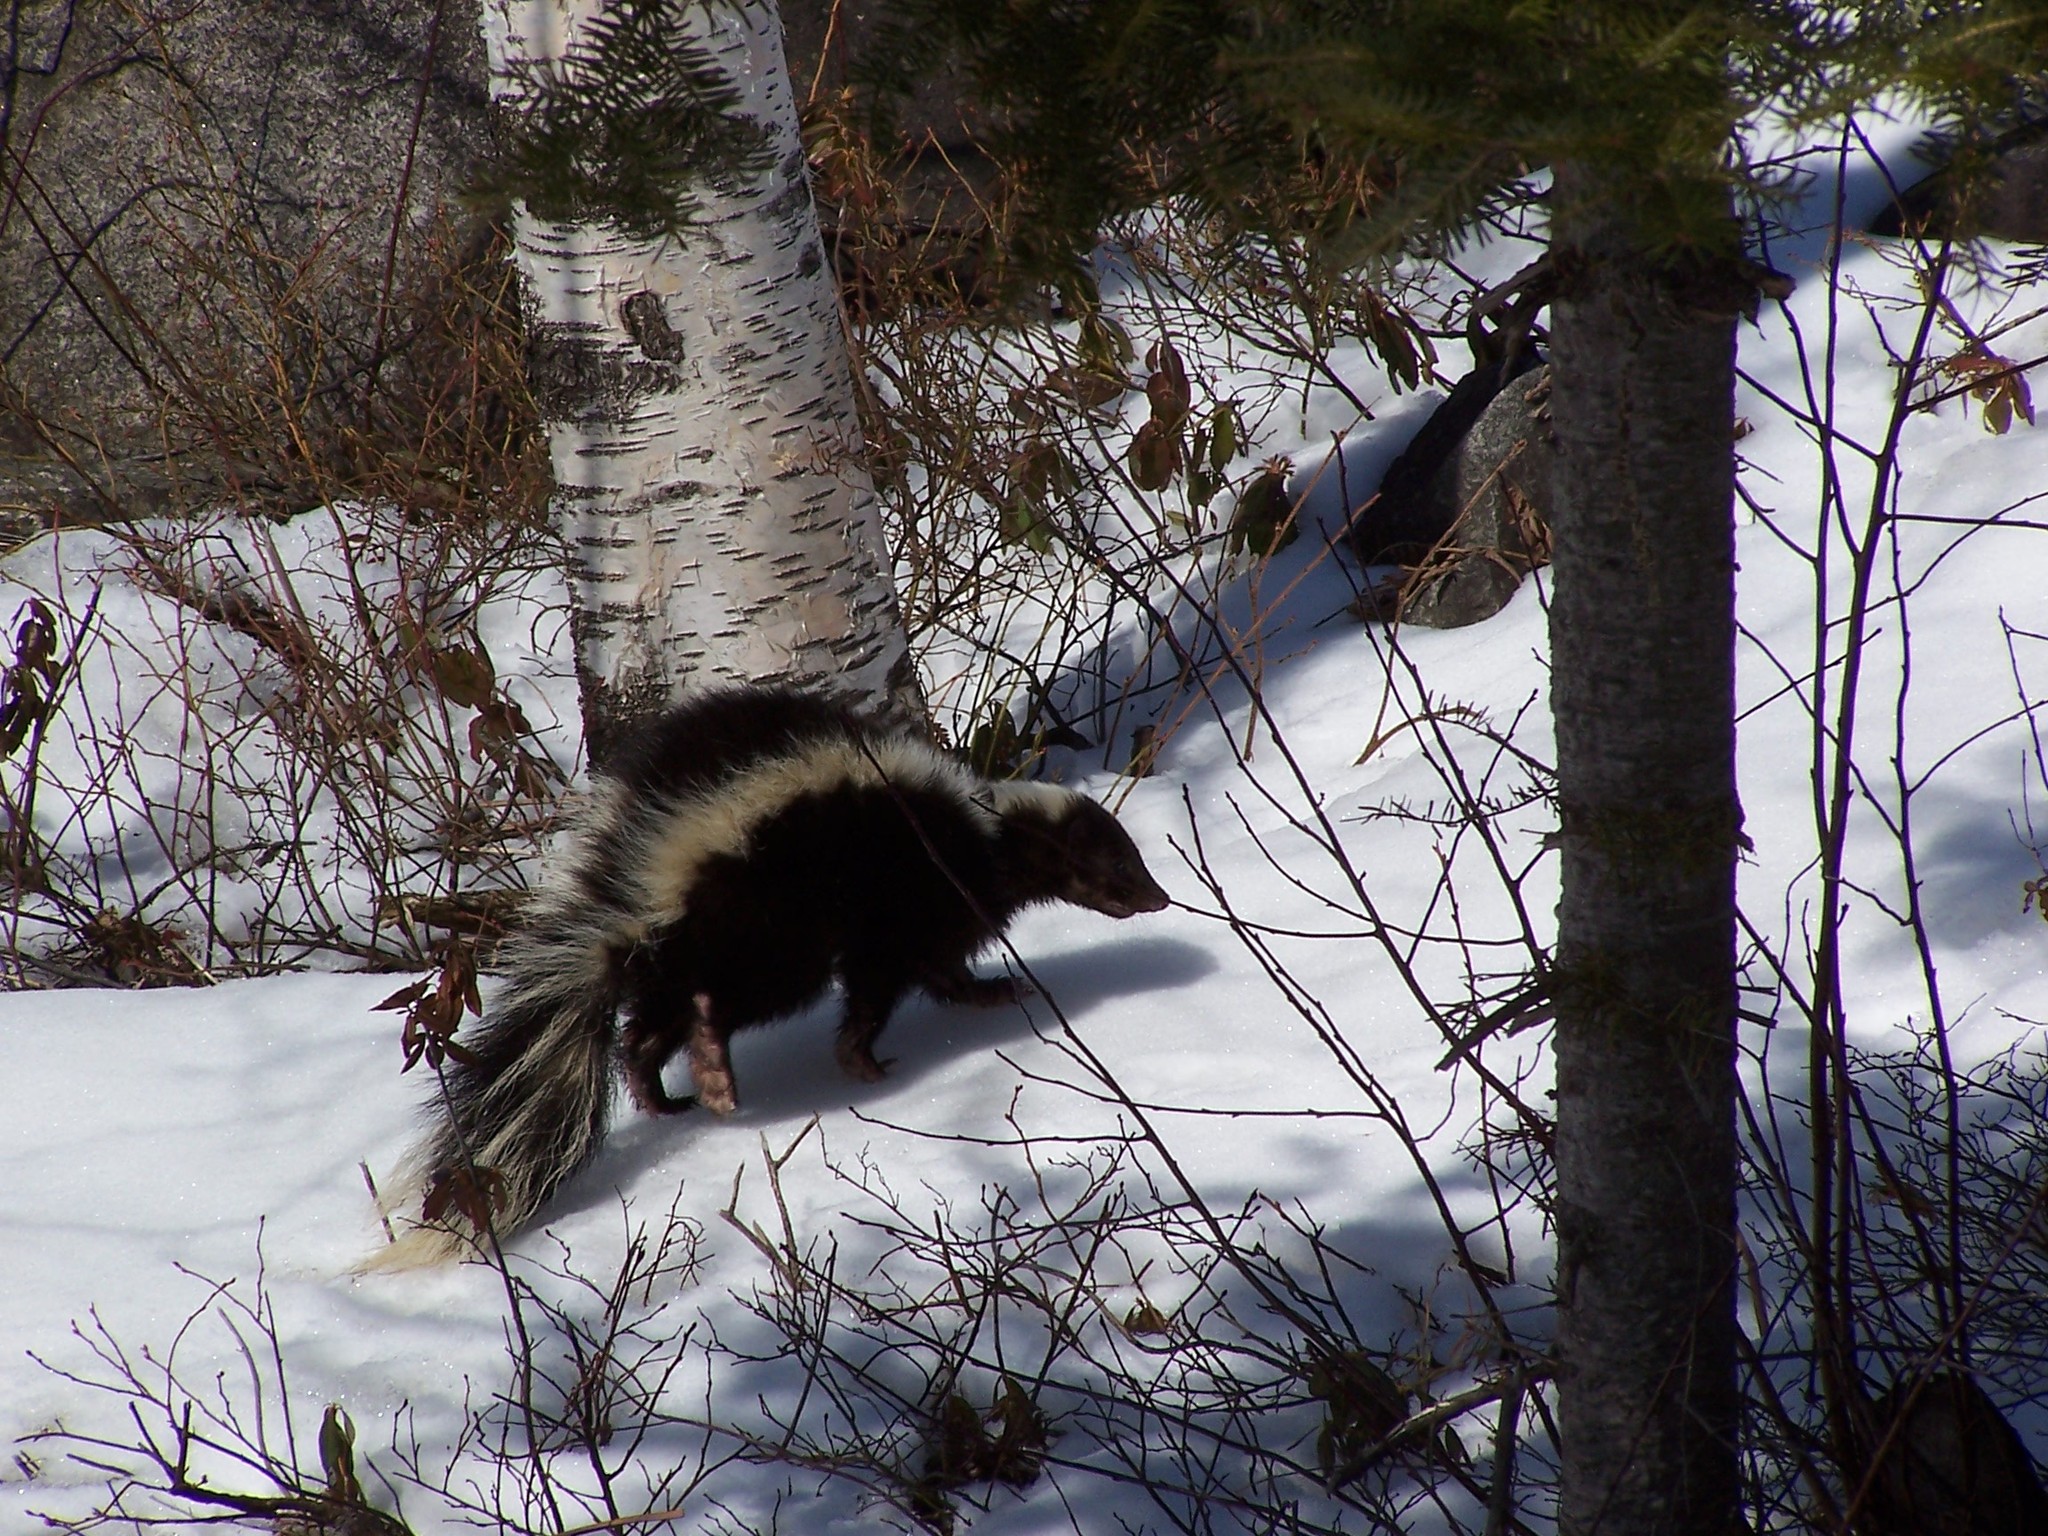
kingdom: Animalia
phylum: Chordata
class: Mammalia
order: Carnivora
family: Mephitidae
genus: Mephitis
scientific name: Mephitis mephitis
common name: Striped skunk
